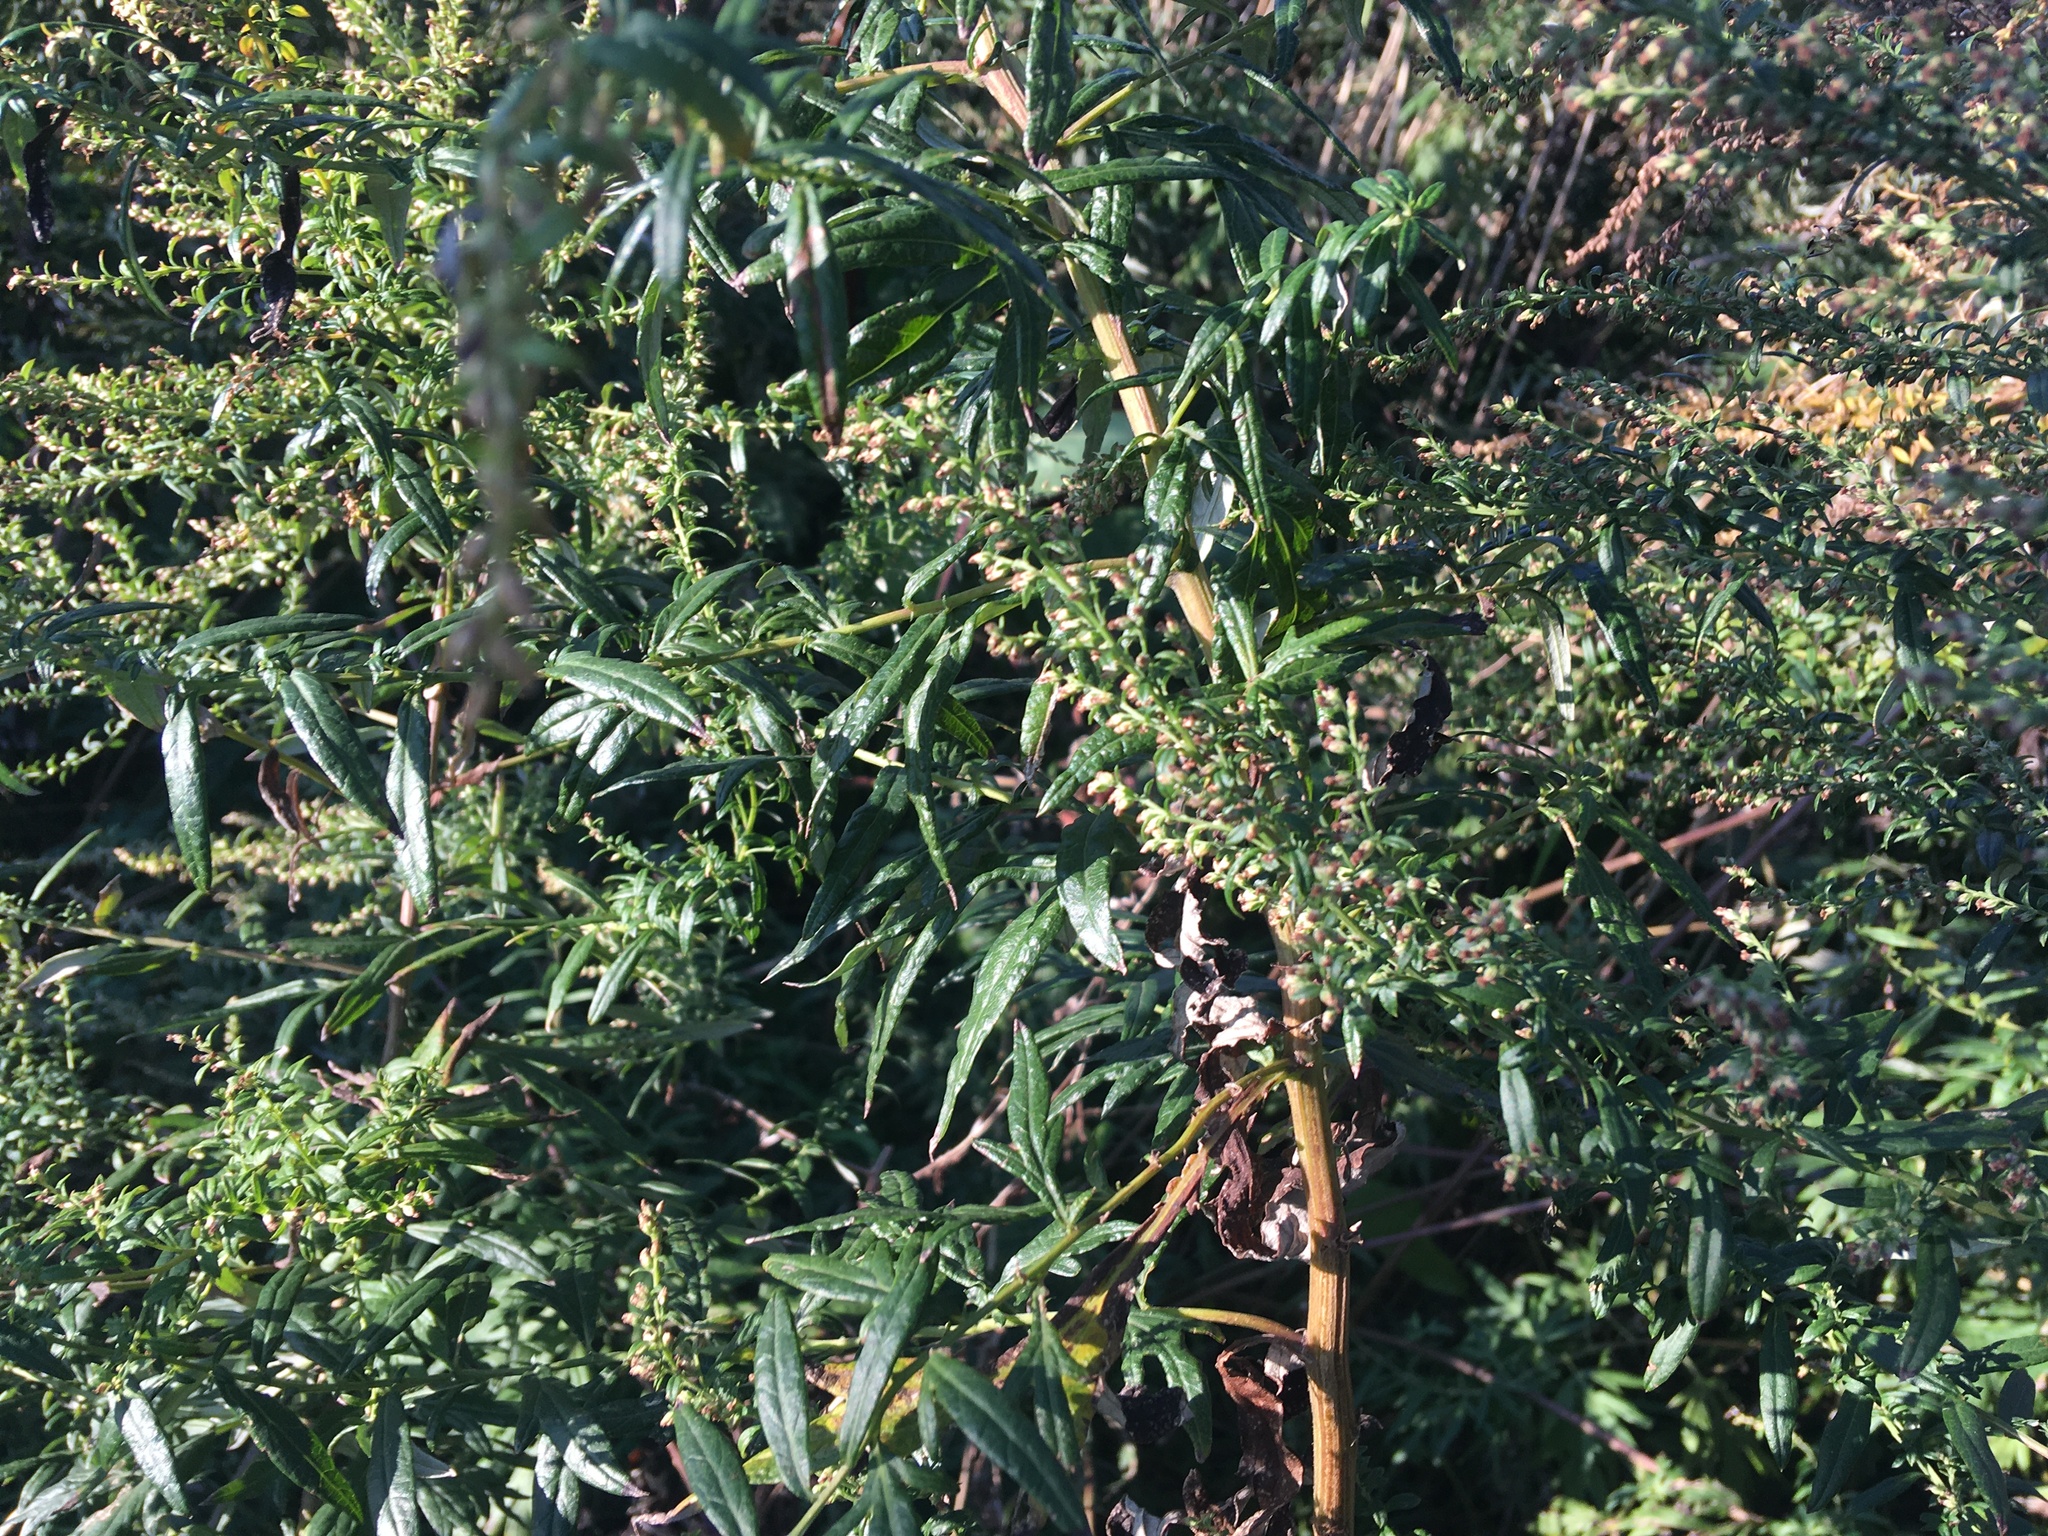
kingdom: Plantae
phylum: Tracheophyta
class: Magnoliopsida
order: Asterales
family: Asteraceae
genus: Artemisia
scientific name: Artemisia vulgaris
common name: Mugwort
